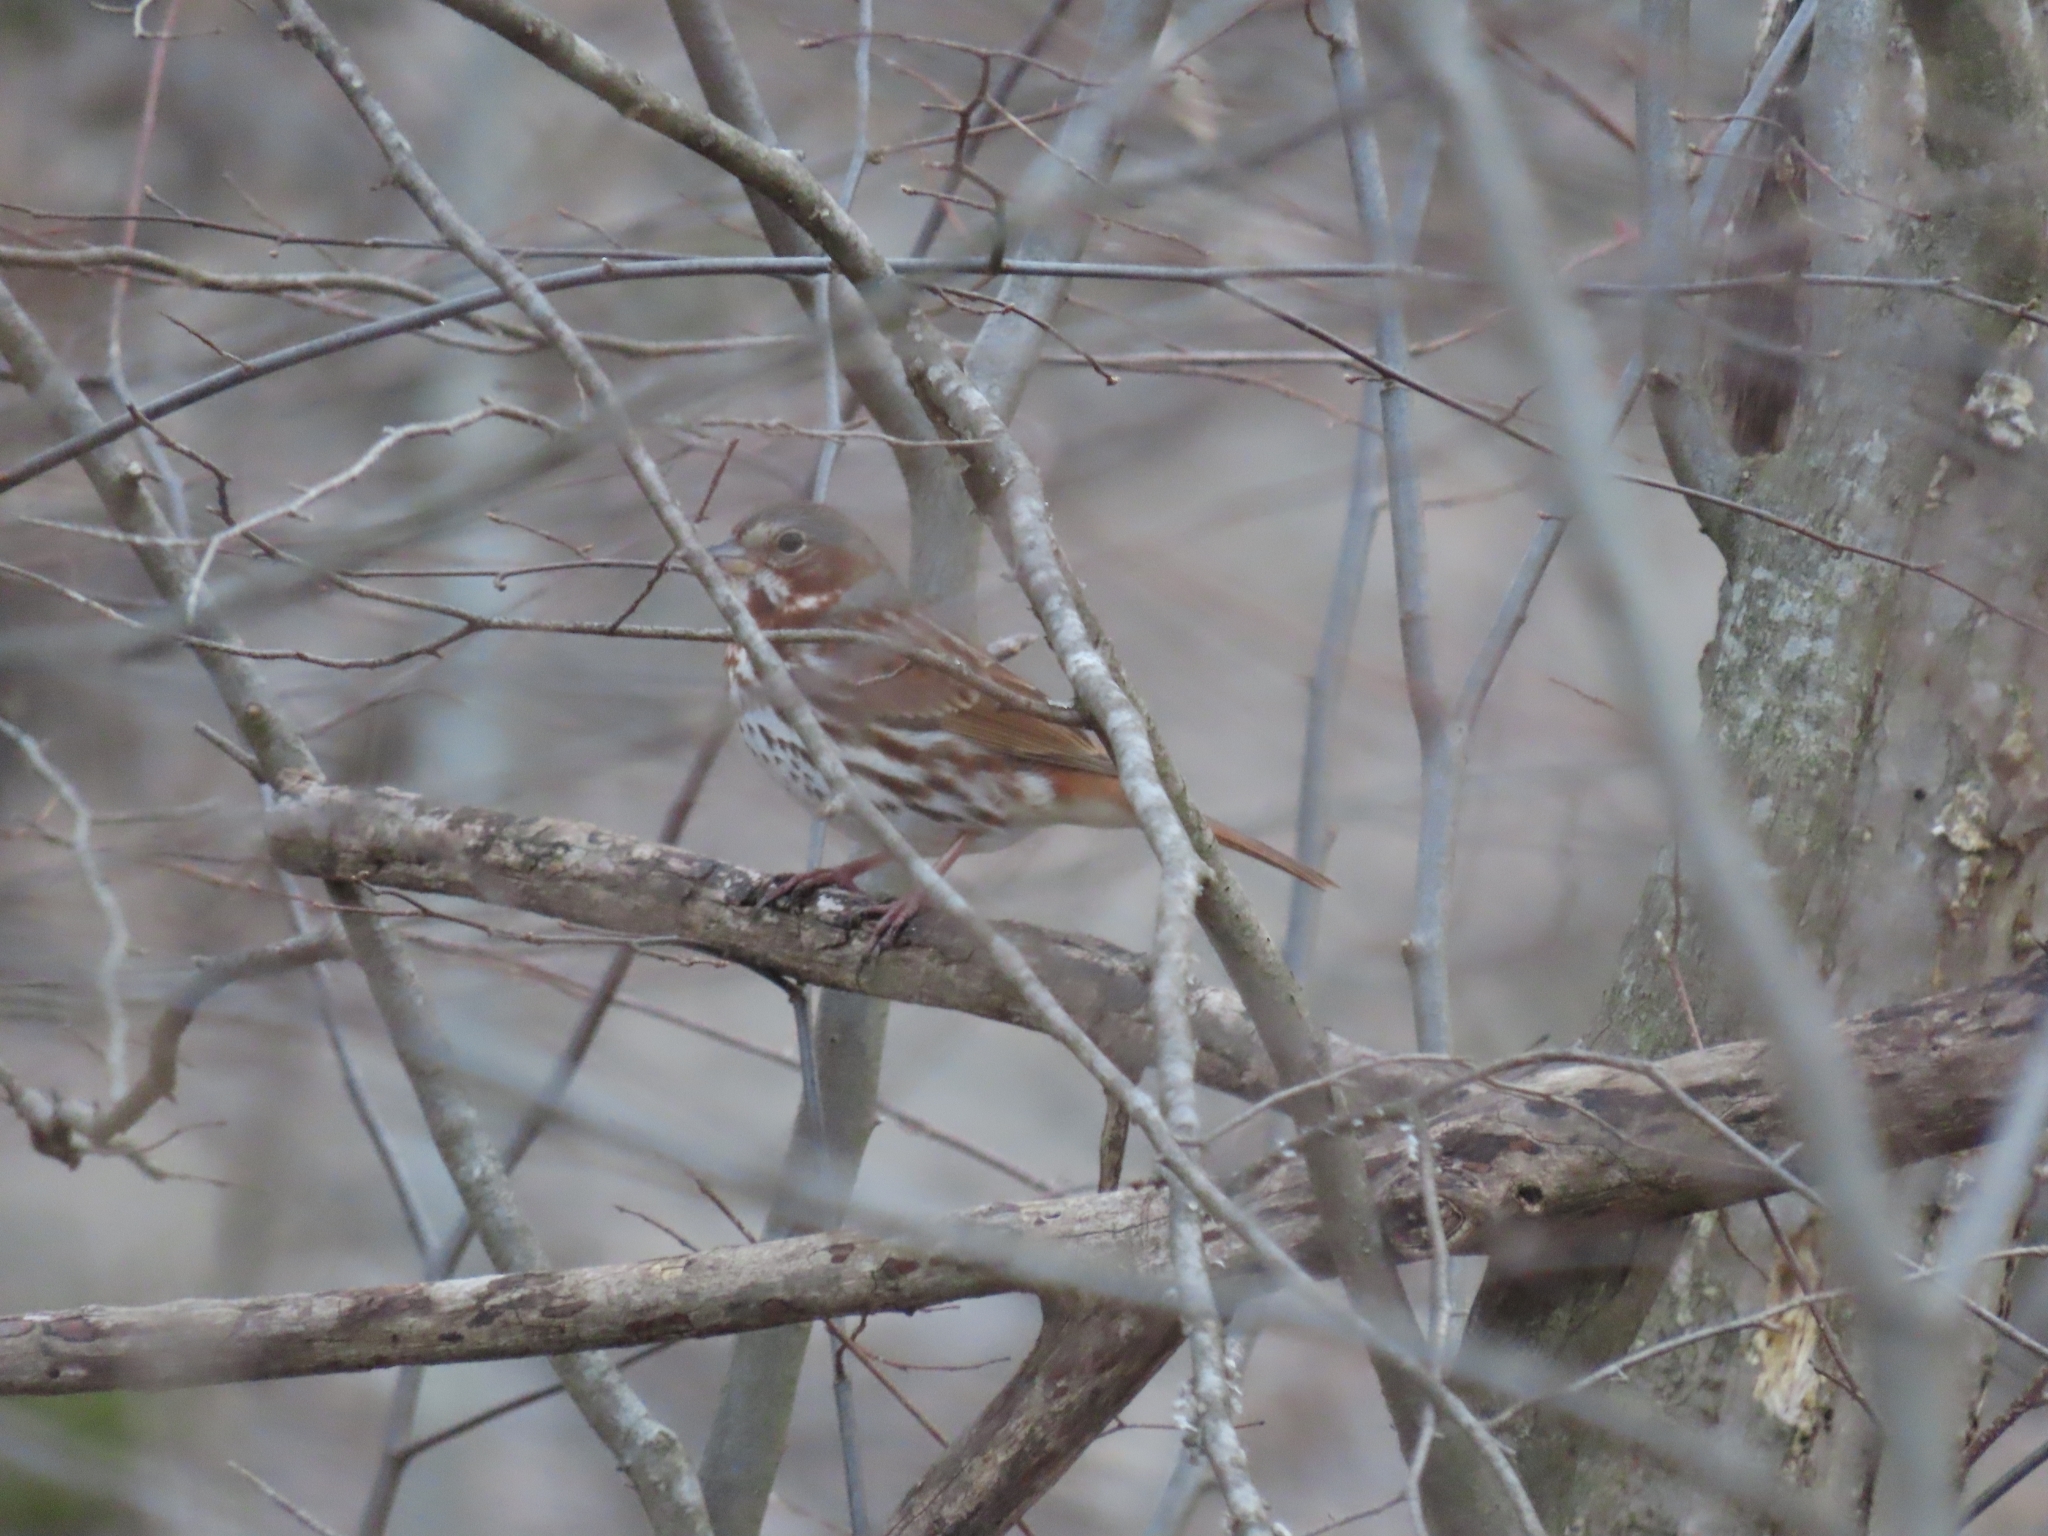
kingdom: Animalia
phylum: Chordata
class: Aves
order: Passeriformes
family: Passerellidae
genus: Passerella
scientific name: Passerella iliaca
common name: Fox sparrow
